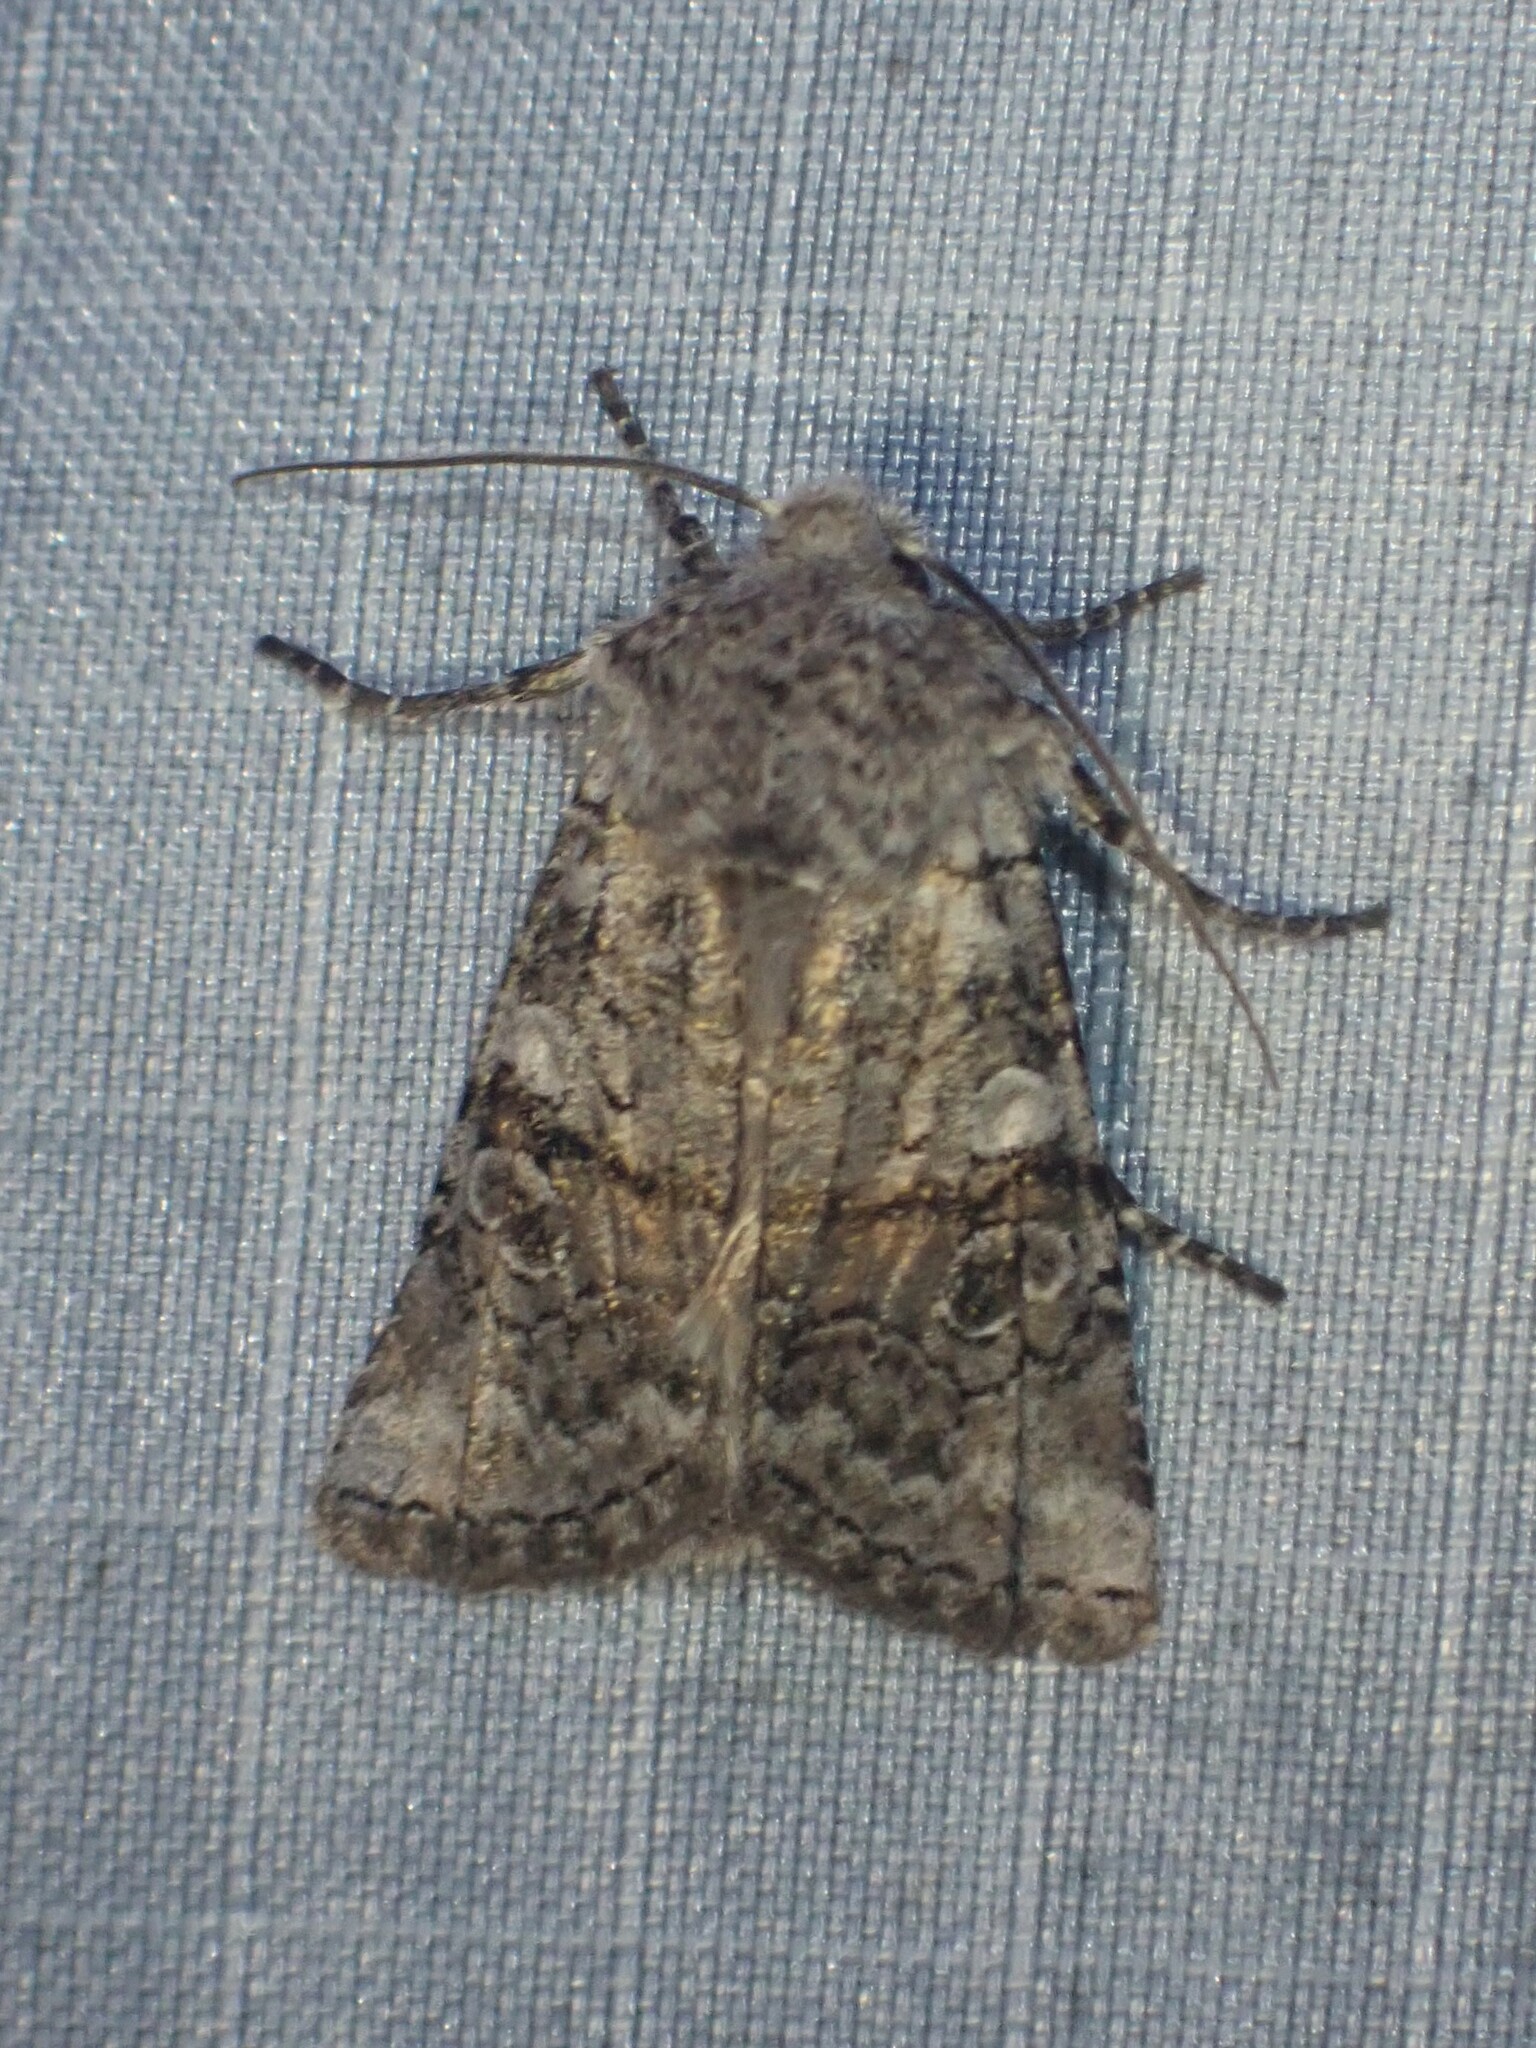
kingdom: Animalia
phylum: Arthropoda
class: Insecta
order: Lepidoptera
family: Noctuidae
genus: Litholomia
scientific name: Litholomia napaea
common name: False pinion moth
